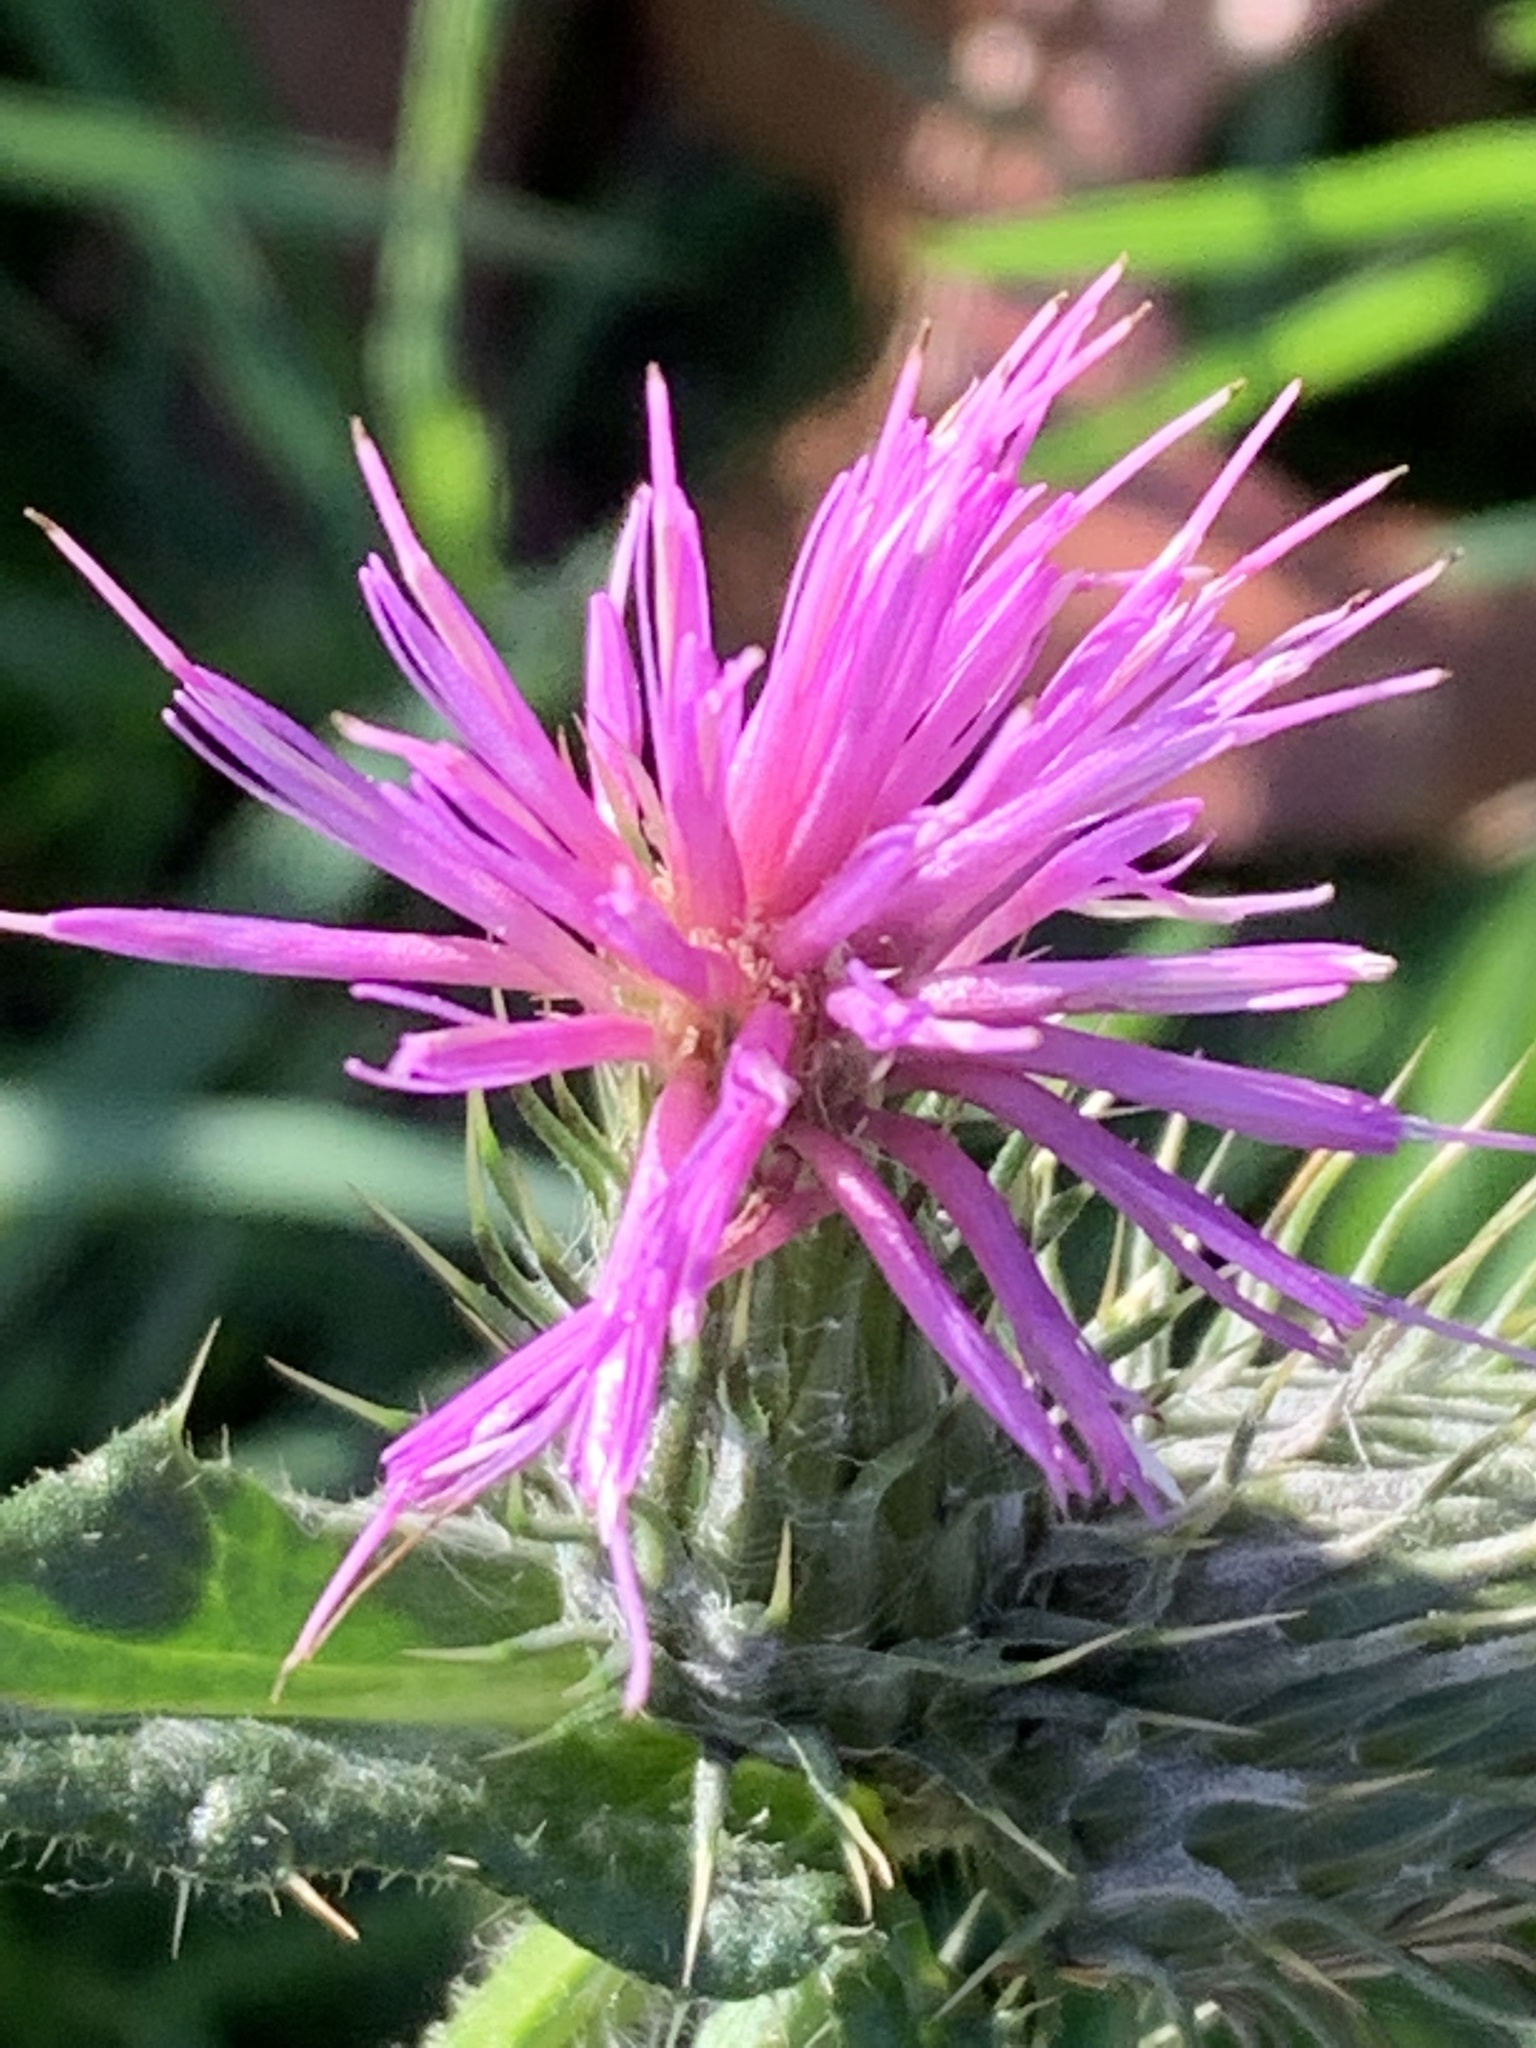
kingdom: Plantae
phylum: Tracheophyta
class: Magnoliopsida
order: Asterales
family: Asteraceae
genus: Cirsium
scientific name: Cirsium vulgare
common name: Bull thistle
